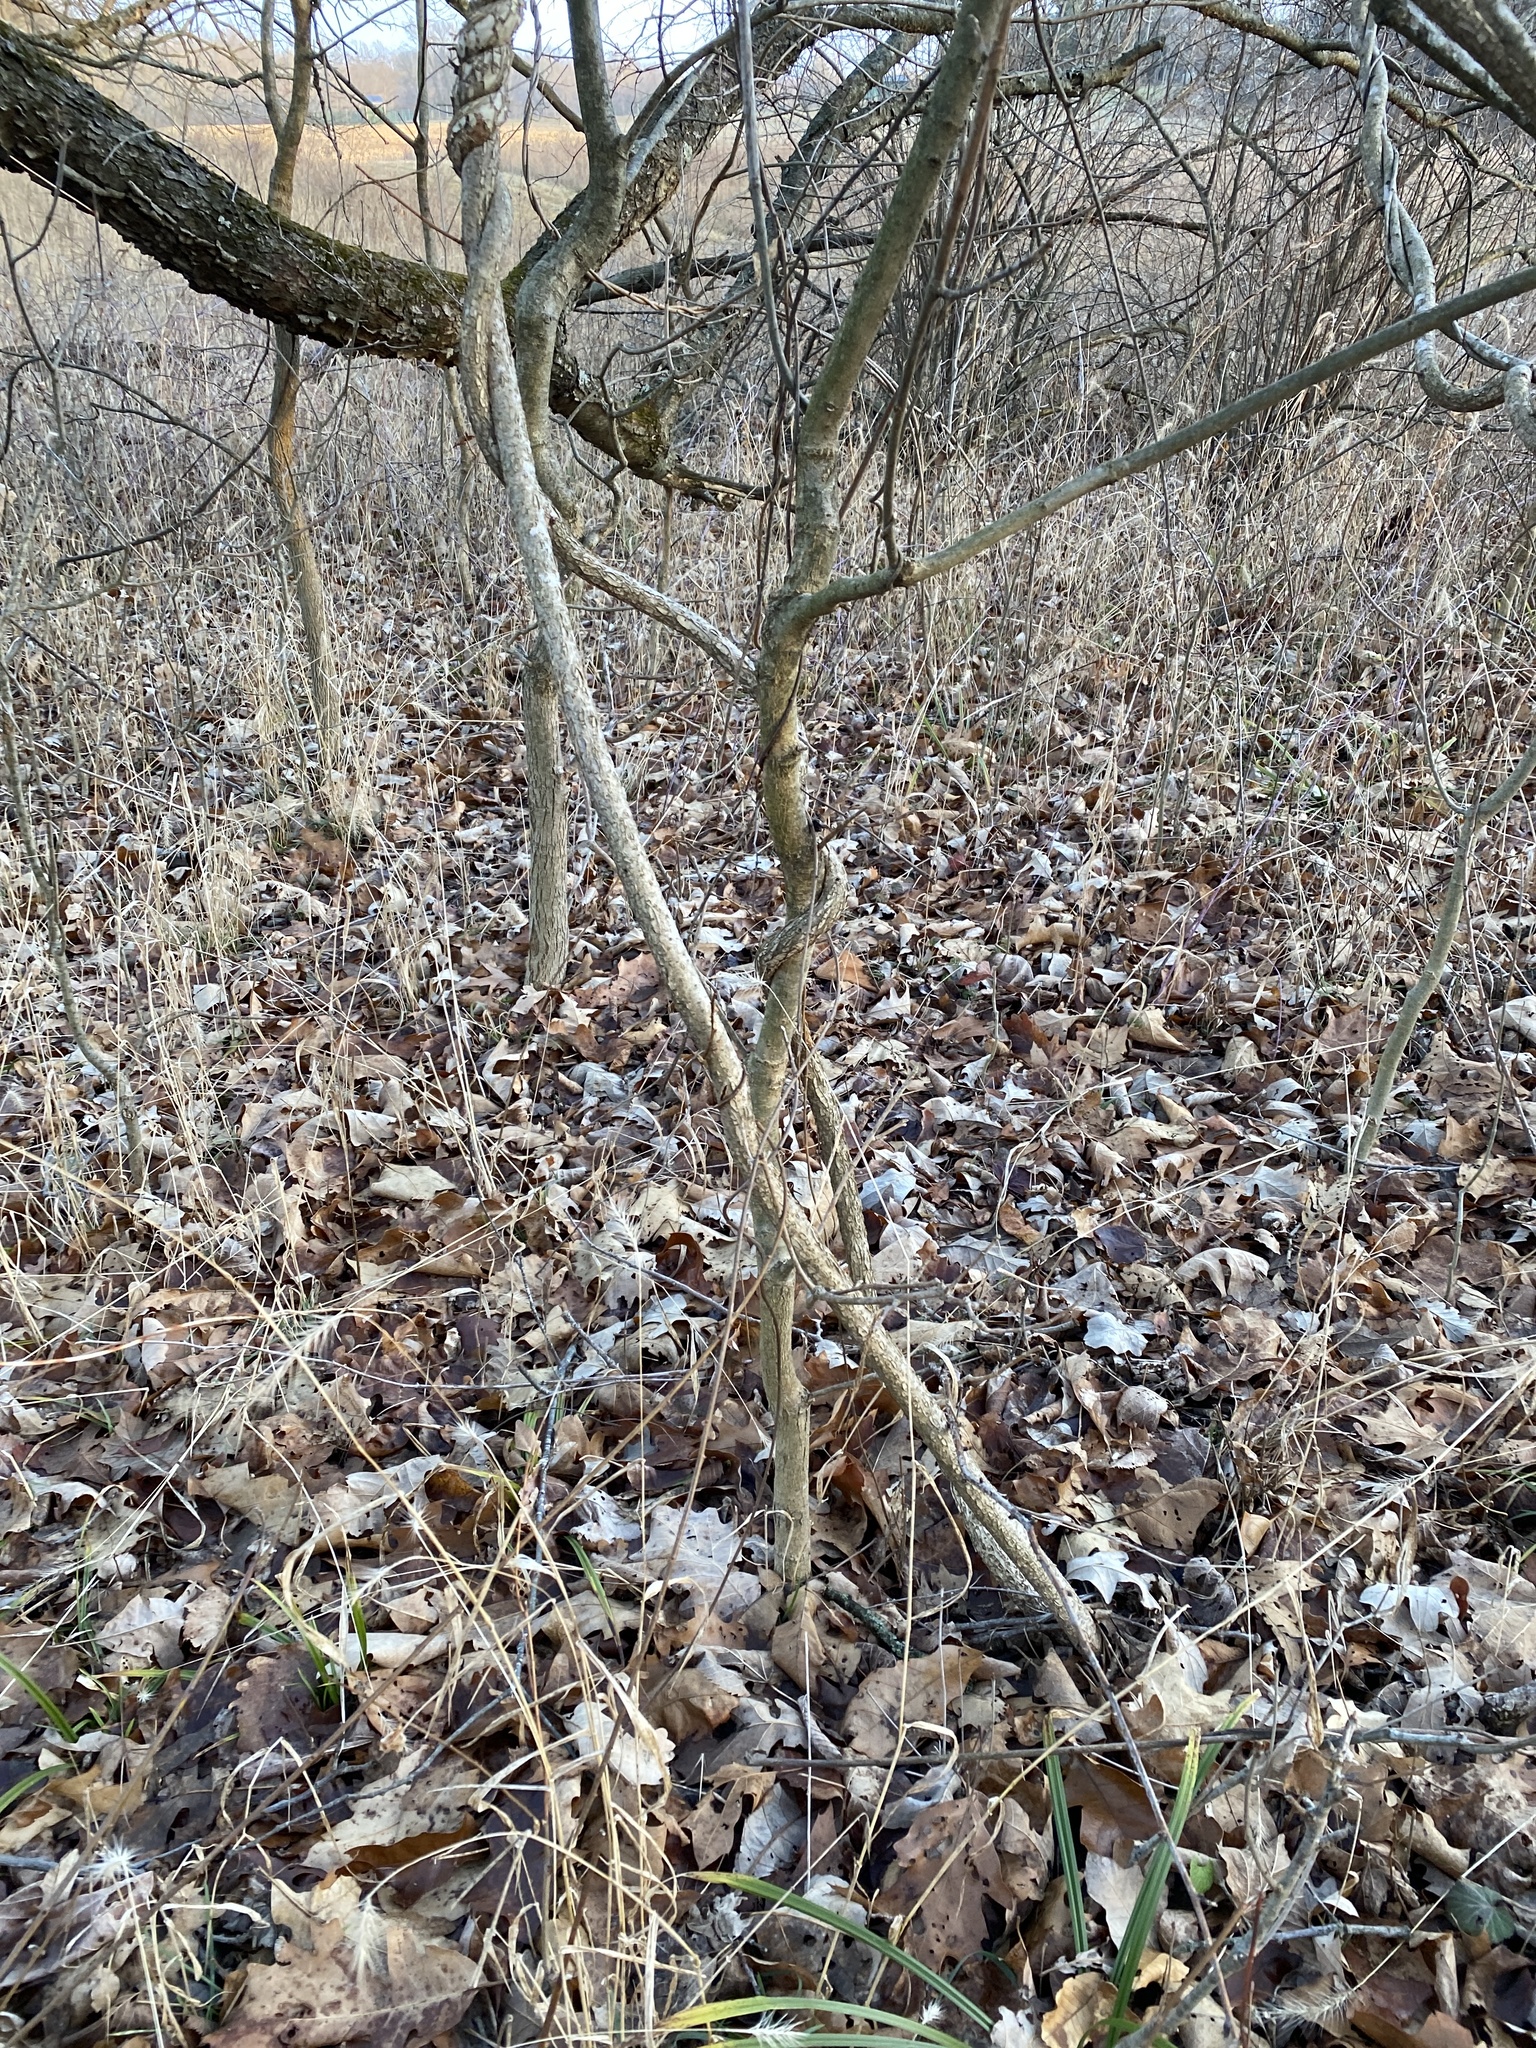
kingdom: Plantae
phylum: Tracheophyta
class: Magnoliopsida
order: Celastrales
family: Celastraceae
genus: Celastrus
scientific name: Celastrus orbiculatus
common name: Oriental bittersweet
